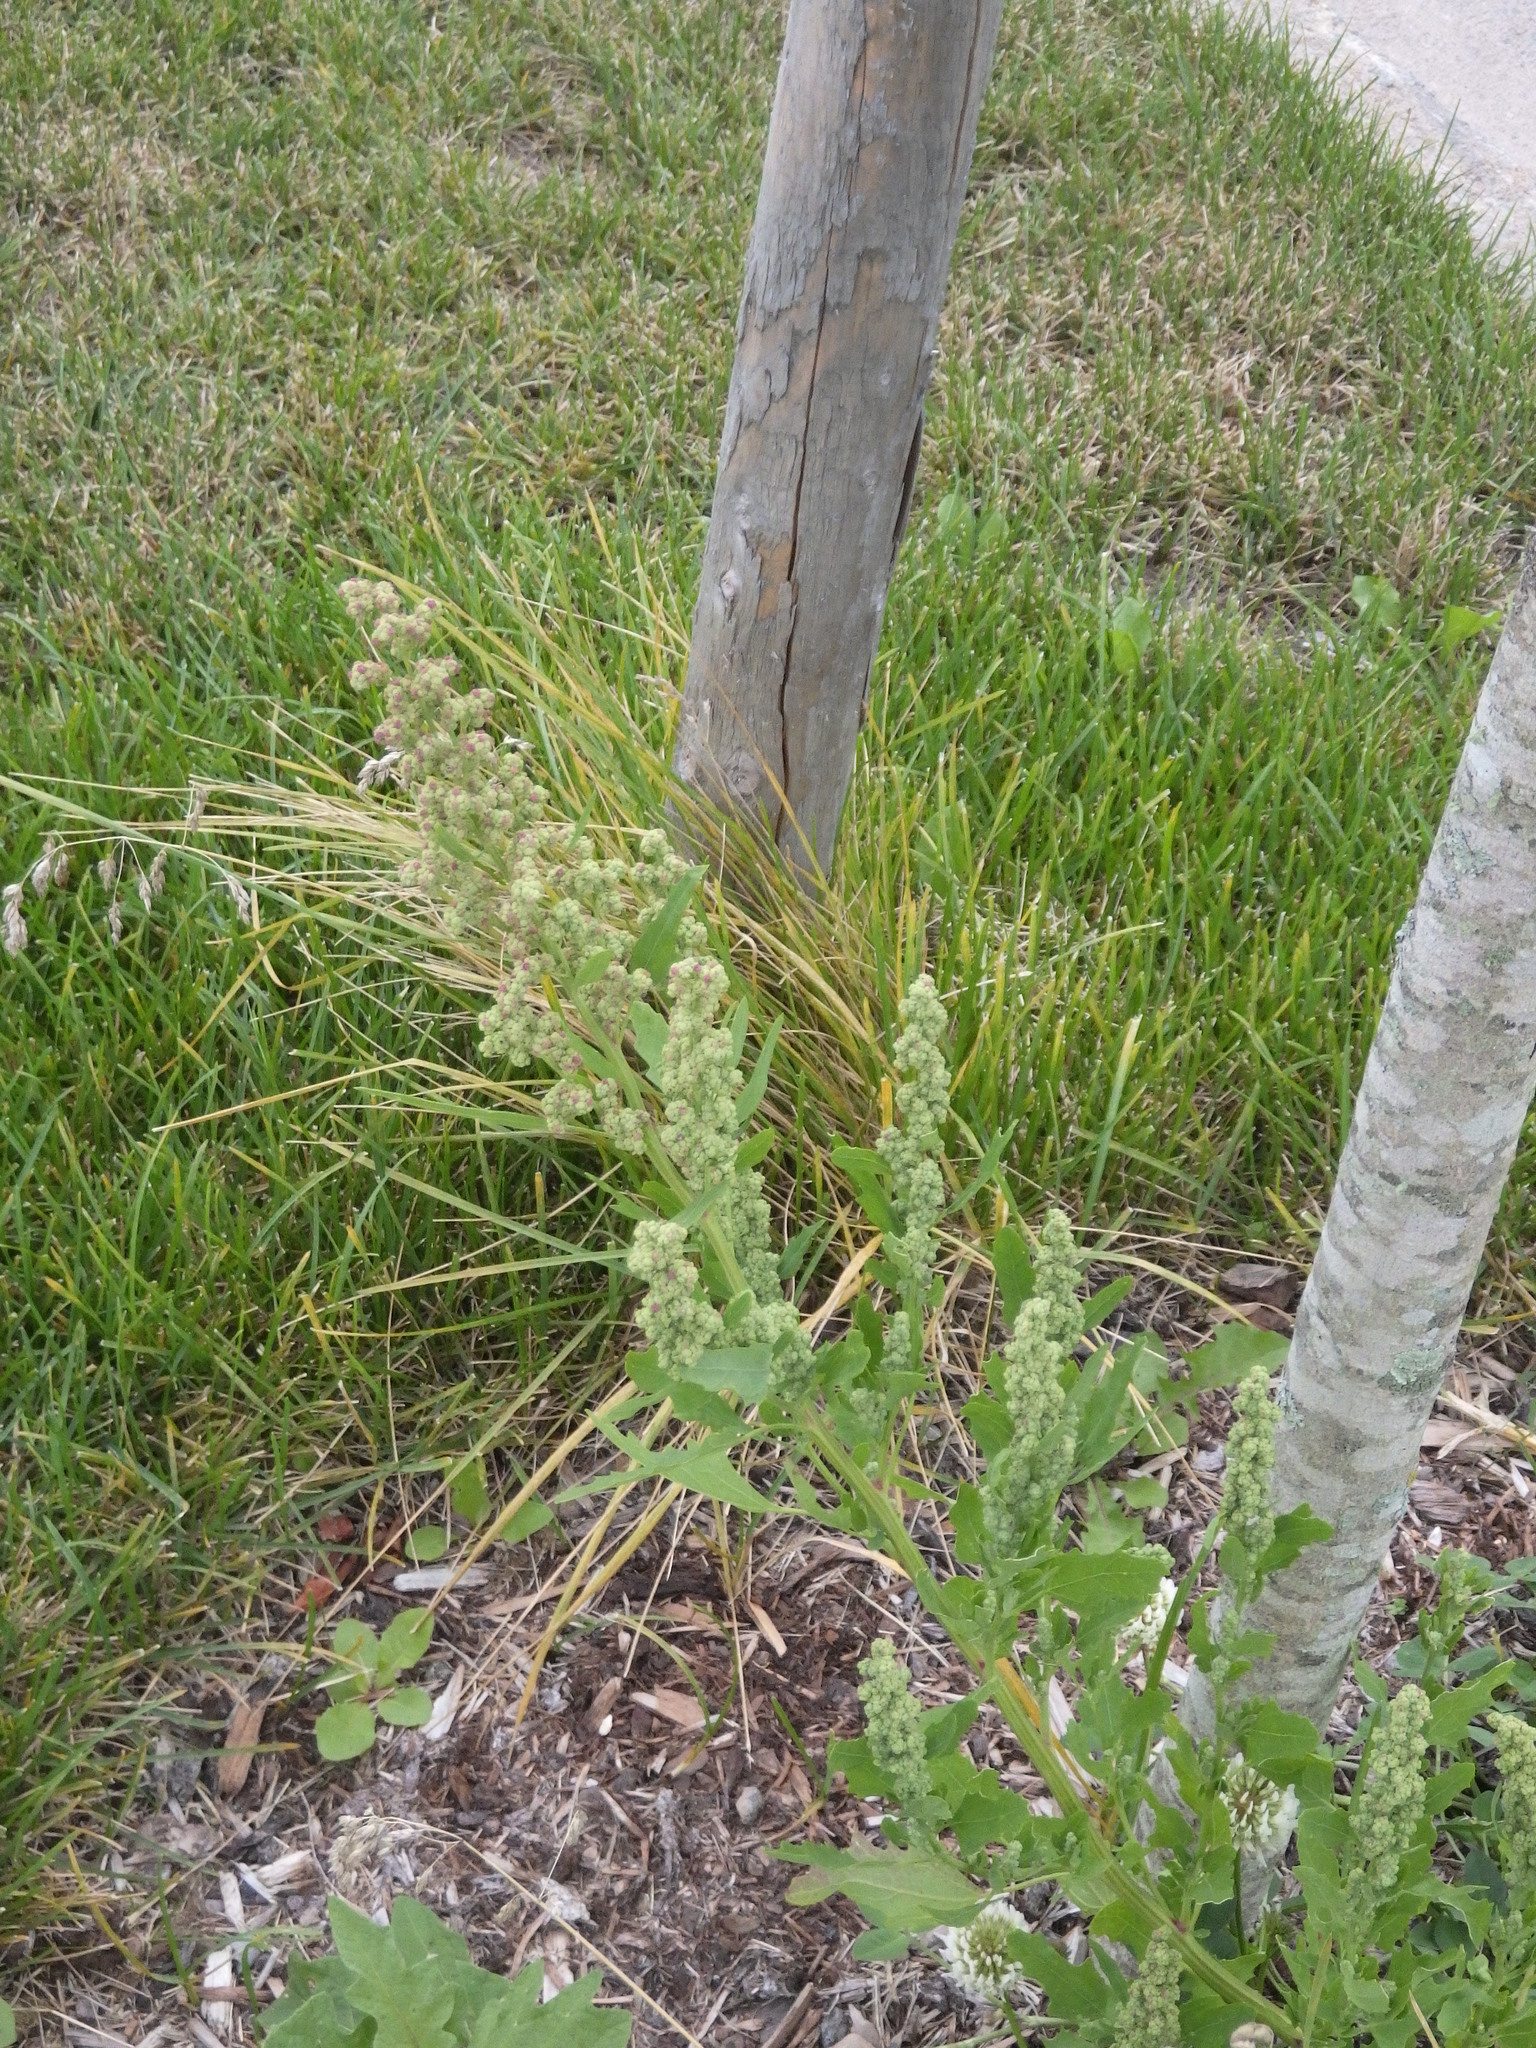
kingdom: Plantae
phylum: Tracheophyta
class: Magnoliopsida
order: Caryophyllales
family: Amaranthaceae
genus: Chenopodium
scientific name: Chenopodium album
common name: Fat-hen
